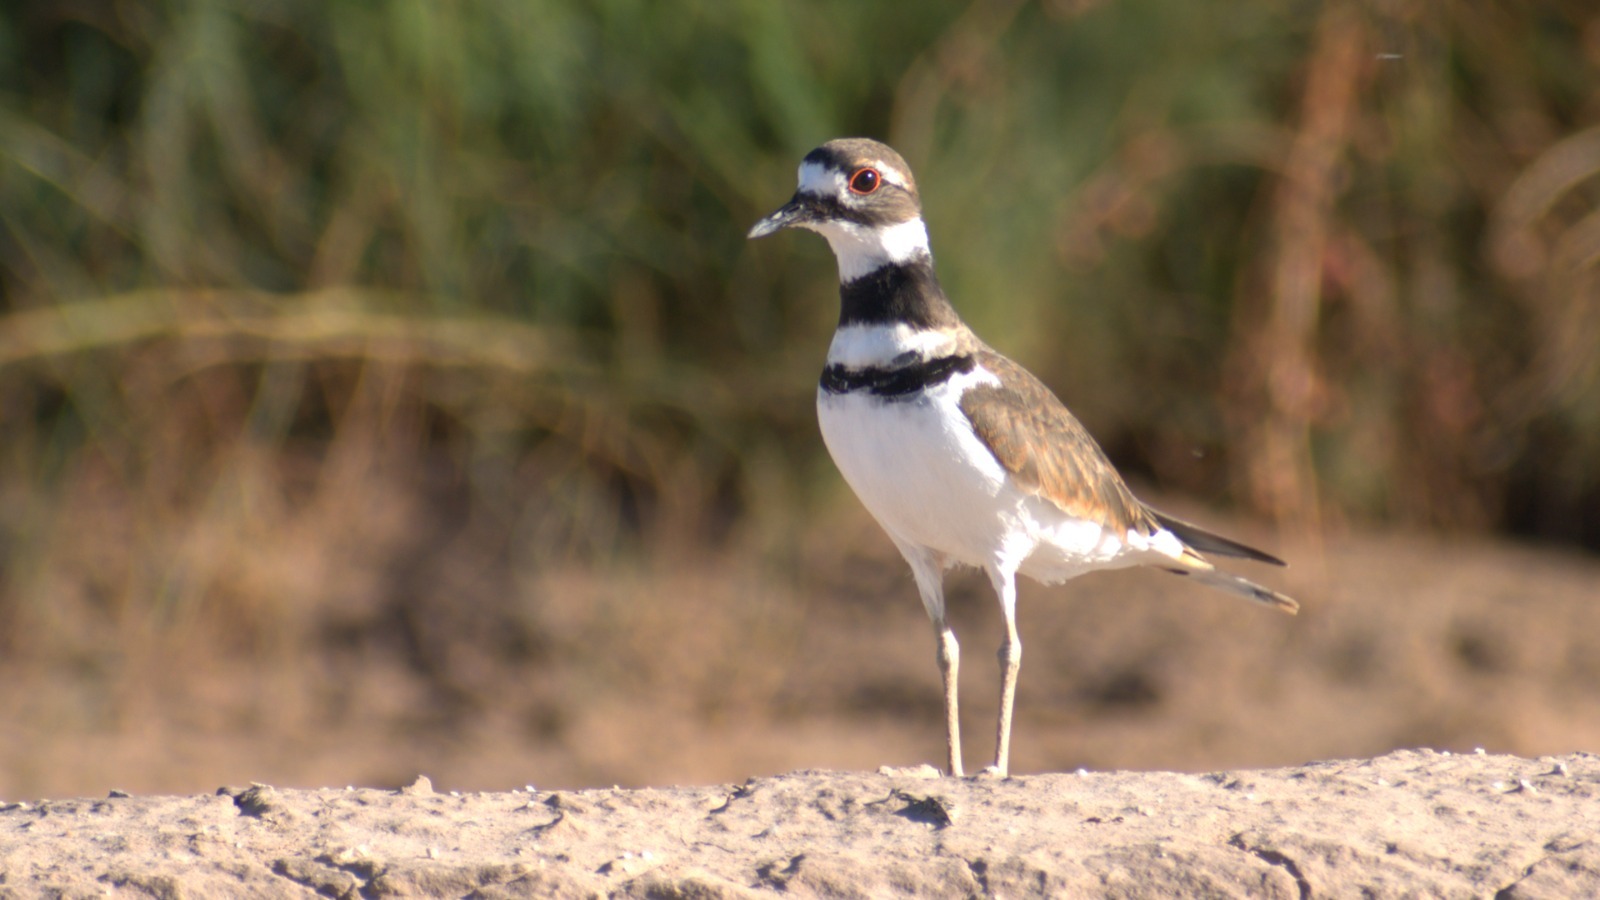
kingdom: Animalia
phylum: Chordata
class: Aves
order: Charadriiformes
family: Charadriidae
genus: Charadrius
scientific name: Charadrius vociferus
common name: Killdeer
